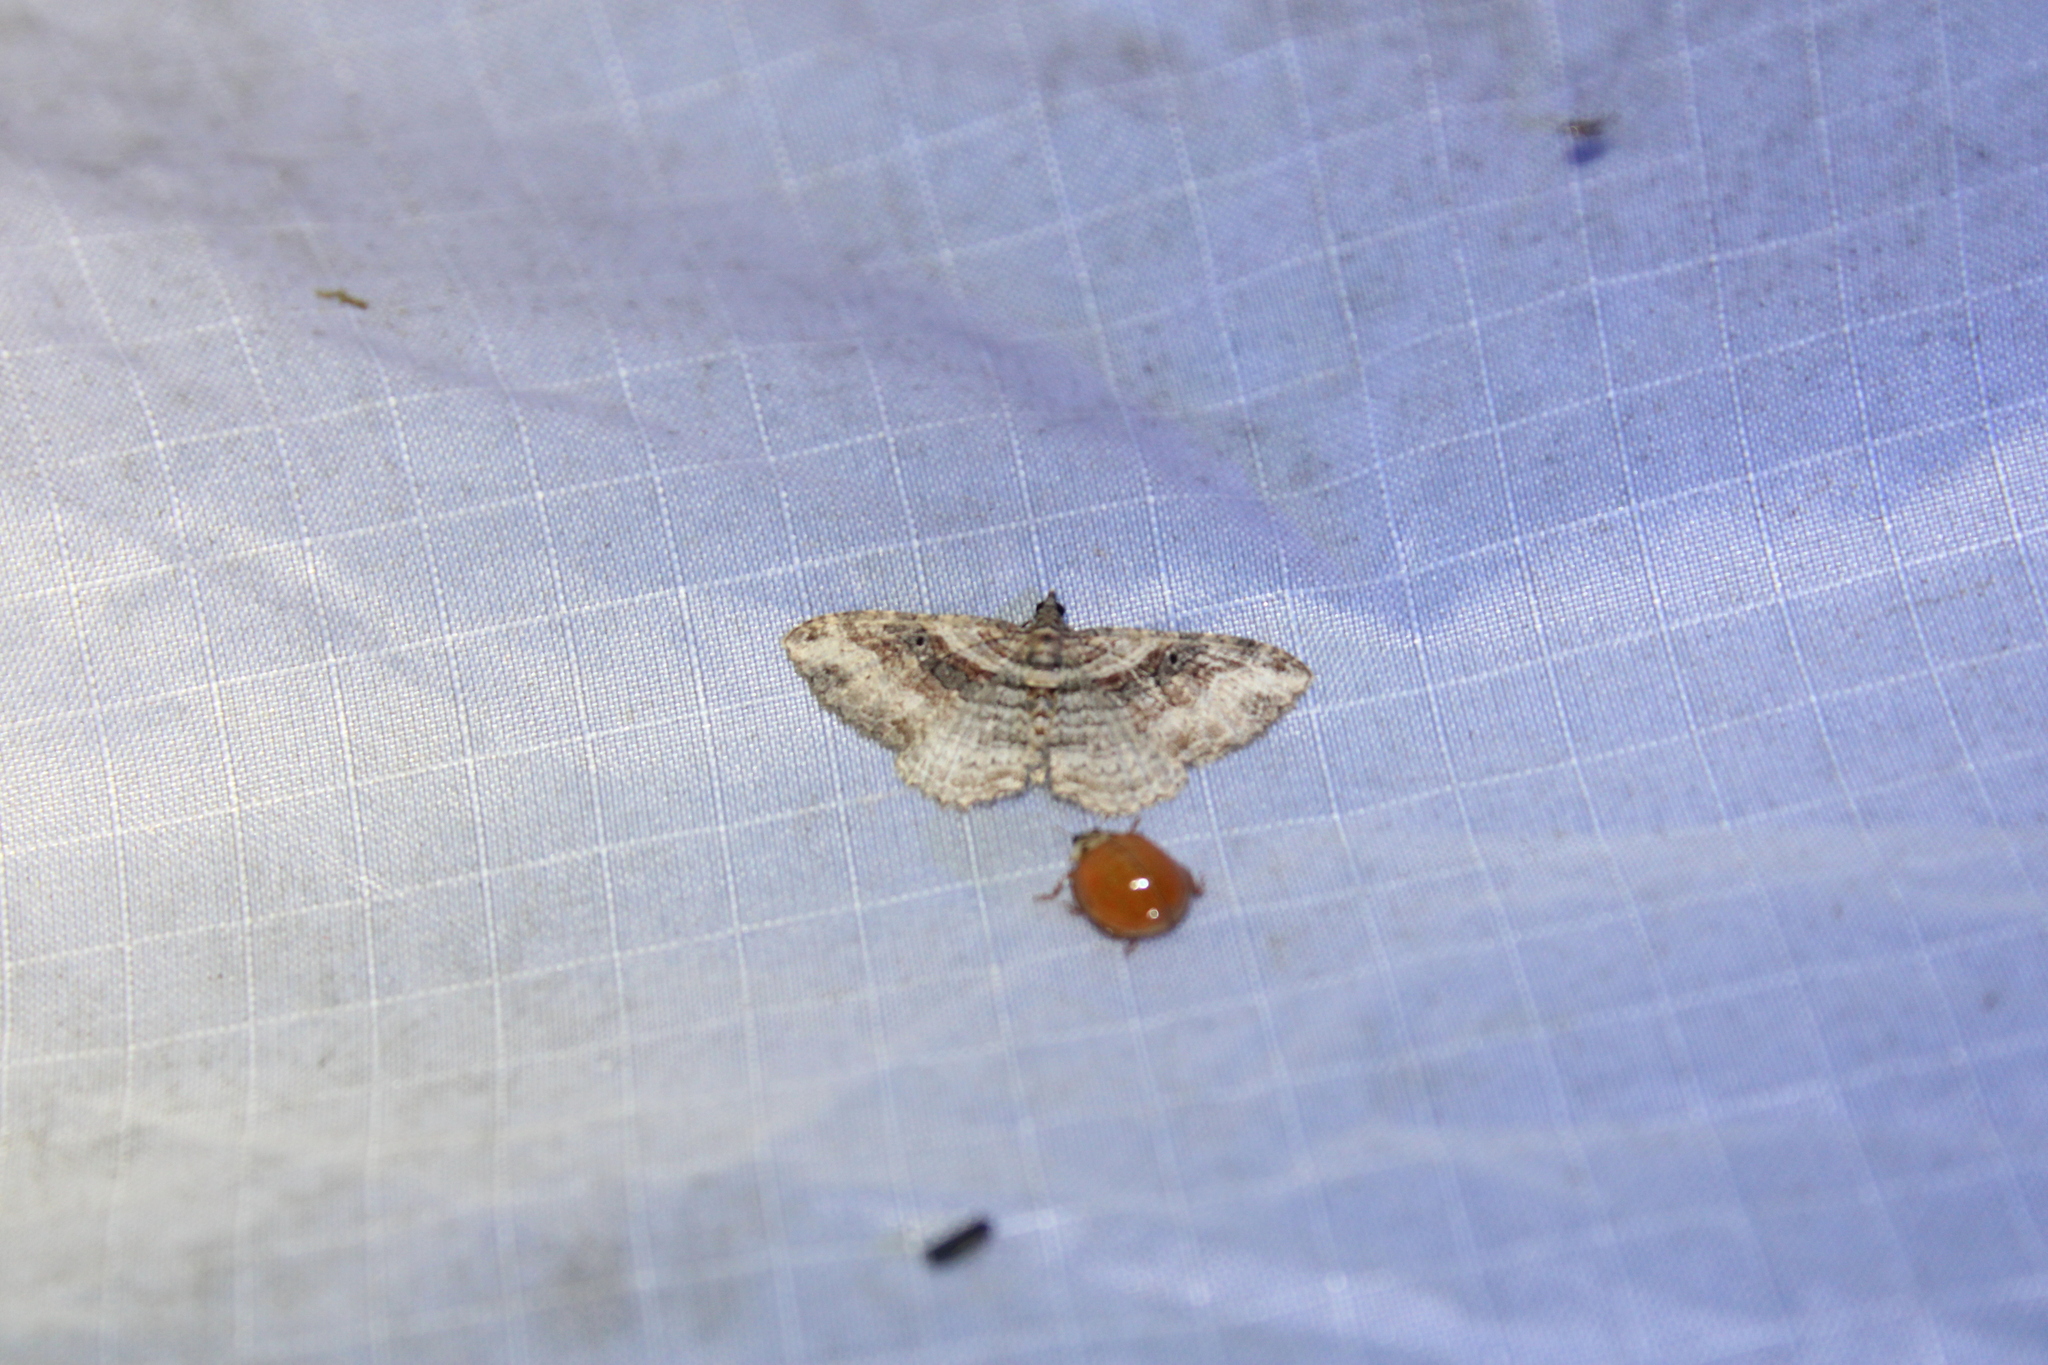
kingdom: Animalia
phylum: Arthropoda
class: Insecta
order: Lepidoptera
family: Geometridae
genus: Costaconvexa
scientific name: Costaconvexa centrostrigaria
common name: Bent-line carpet
